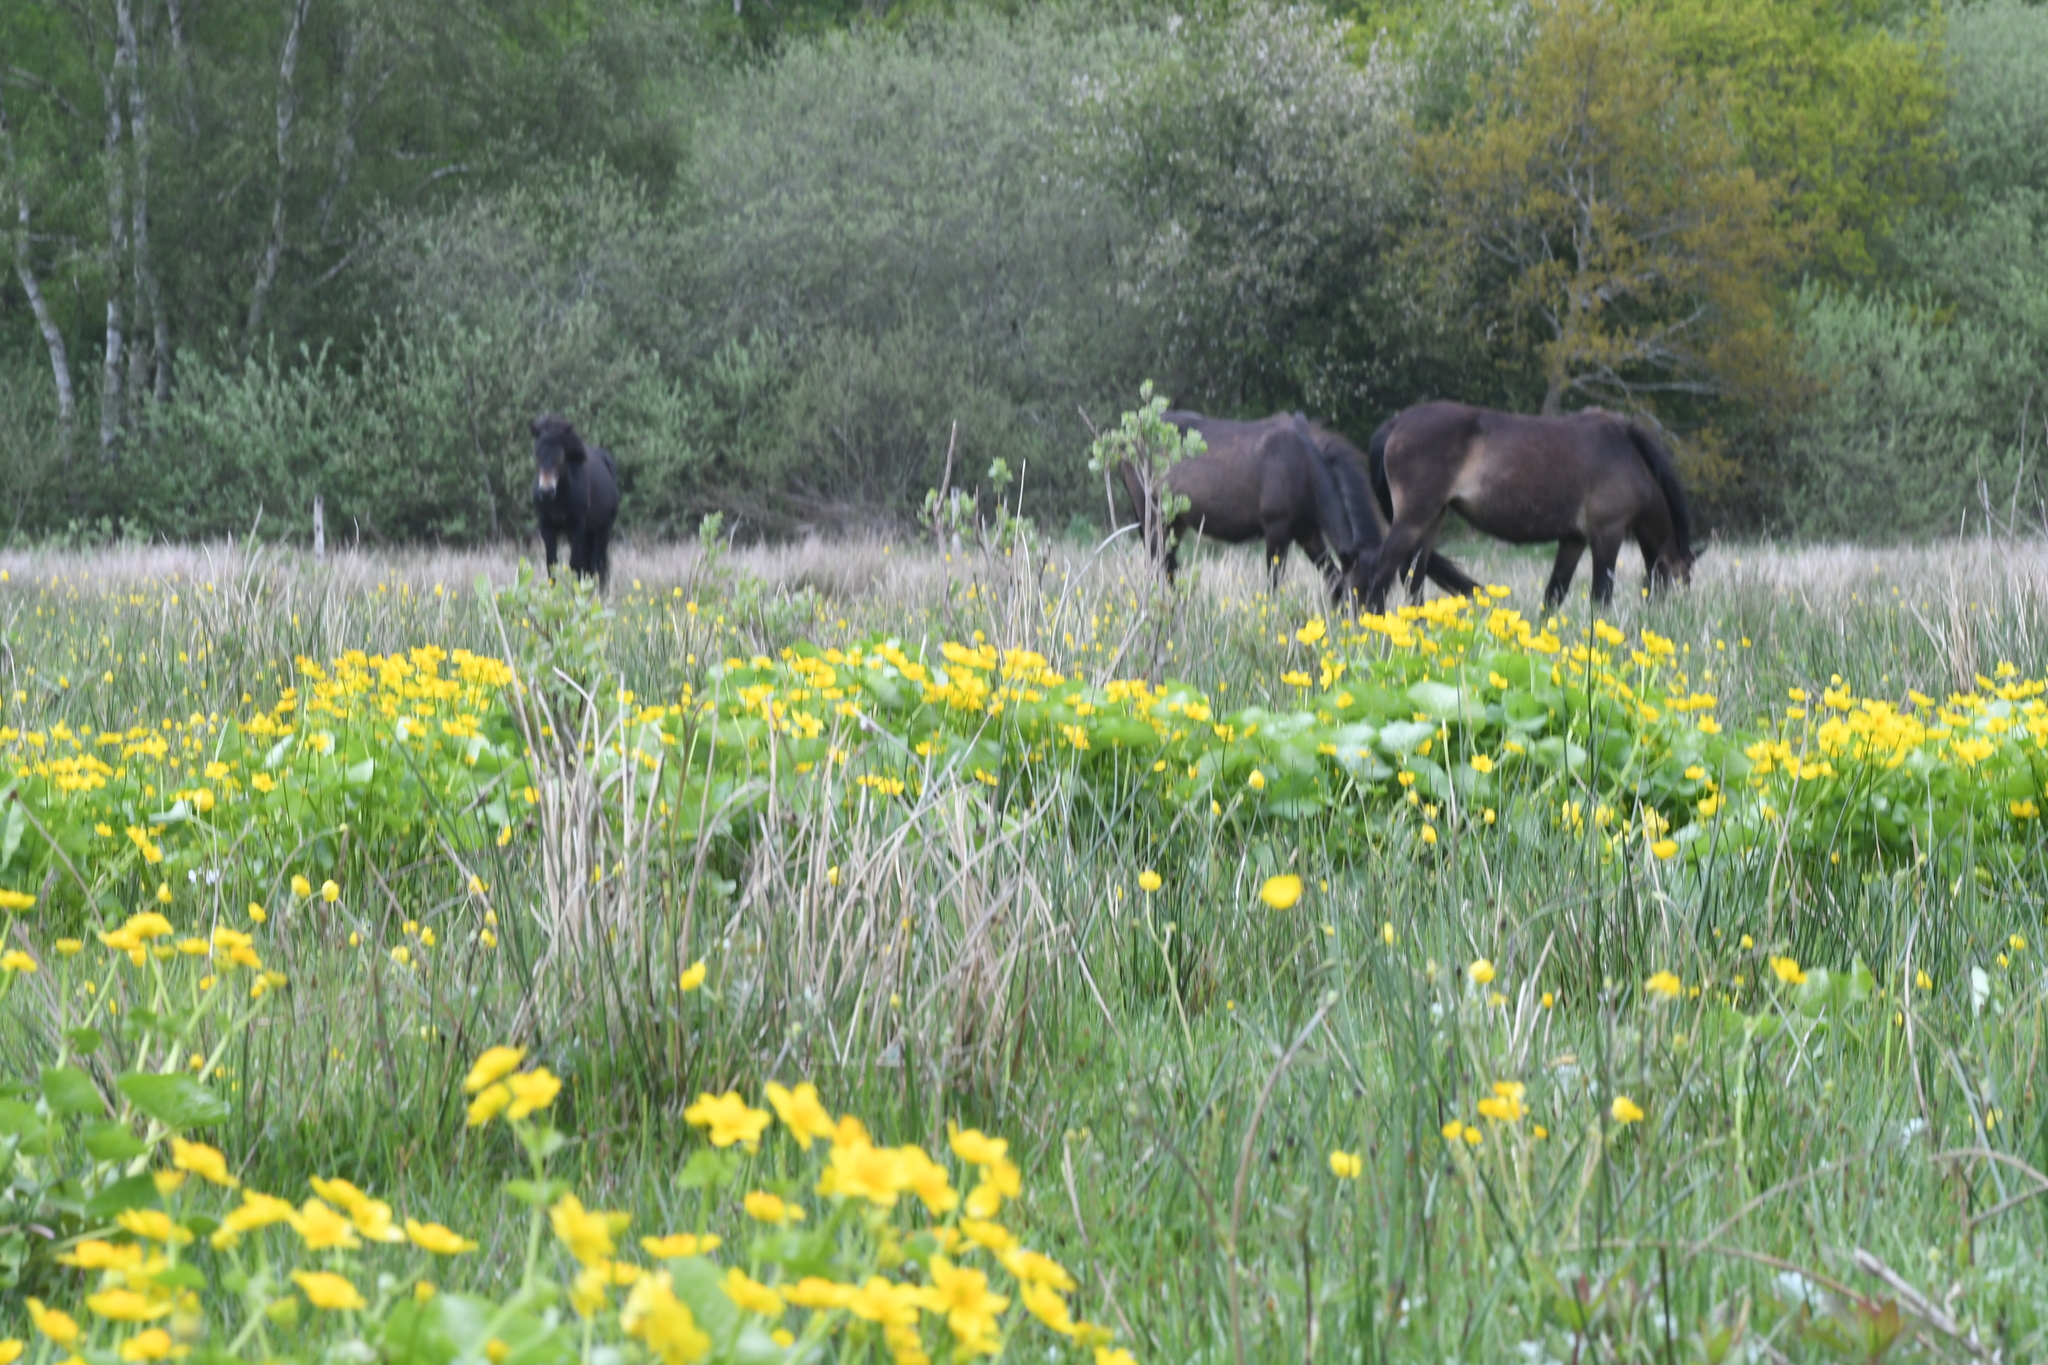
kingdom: Plantae
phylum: Tracheophyta
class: Magnoliopsida
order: Ranunculales
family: Ranunculaceae
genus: Caltha
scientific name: Caltha palustris
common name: Marsh marigold
